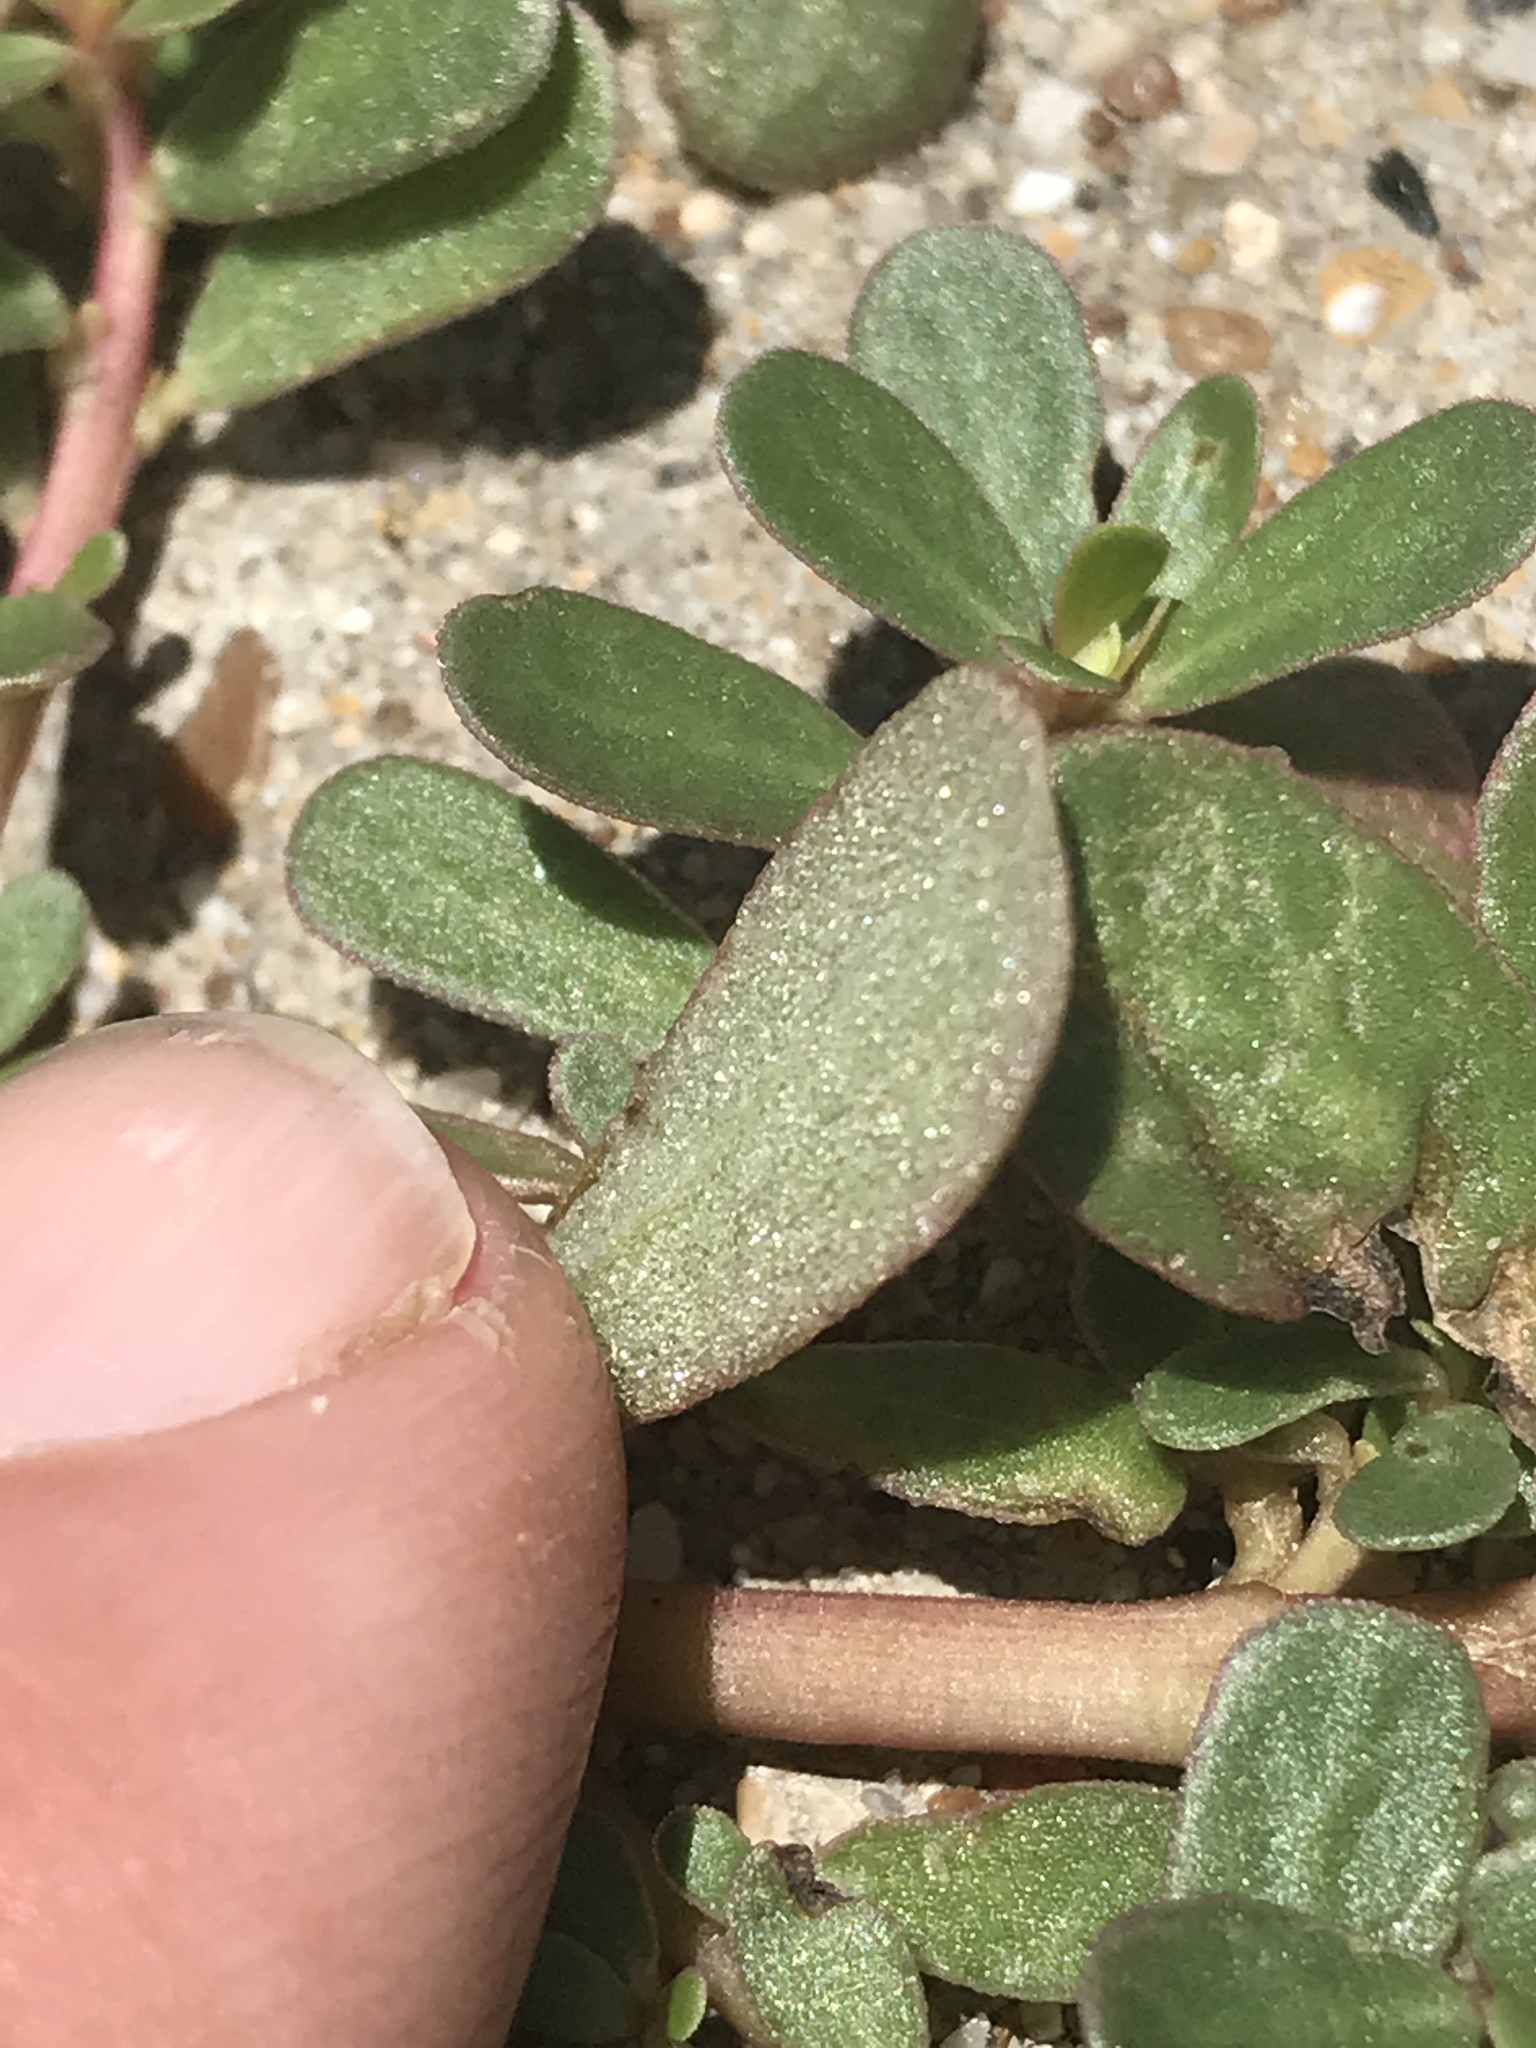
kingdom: Plantae
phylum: Tracheophyta
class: Magnoliopsida
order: Caryophyllales
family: Portulacaceae
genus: Portulaca
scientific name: Portulaca oleracea
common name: Common purslane
